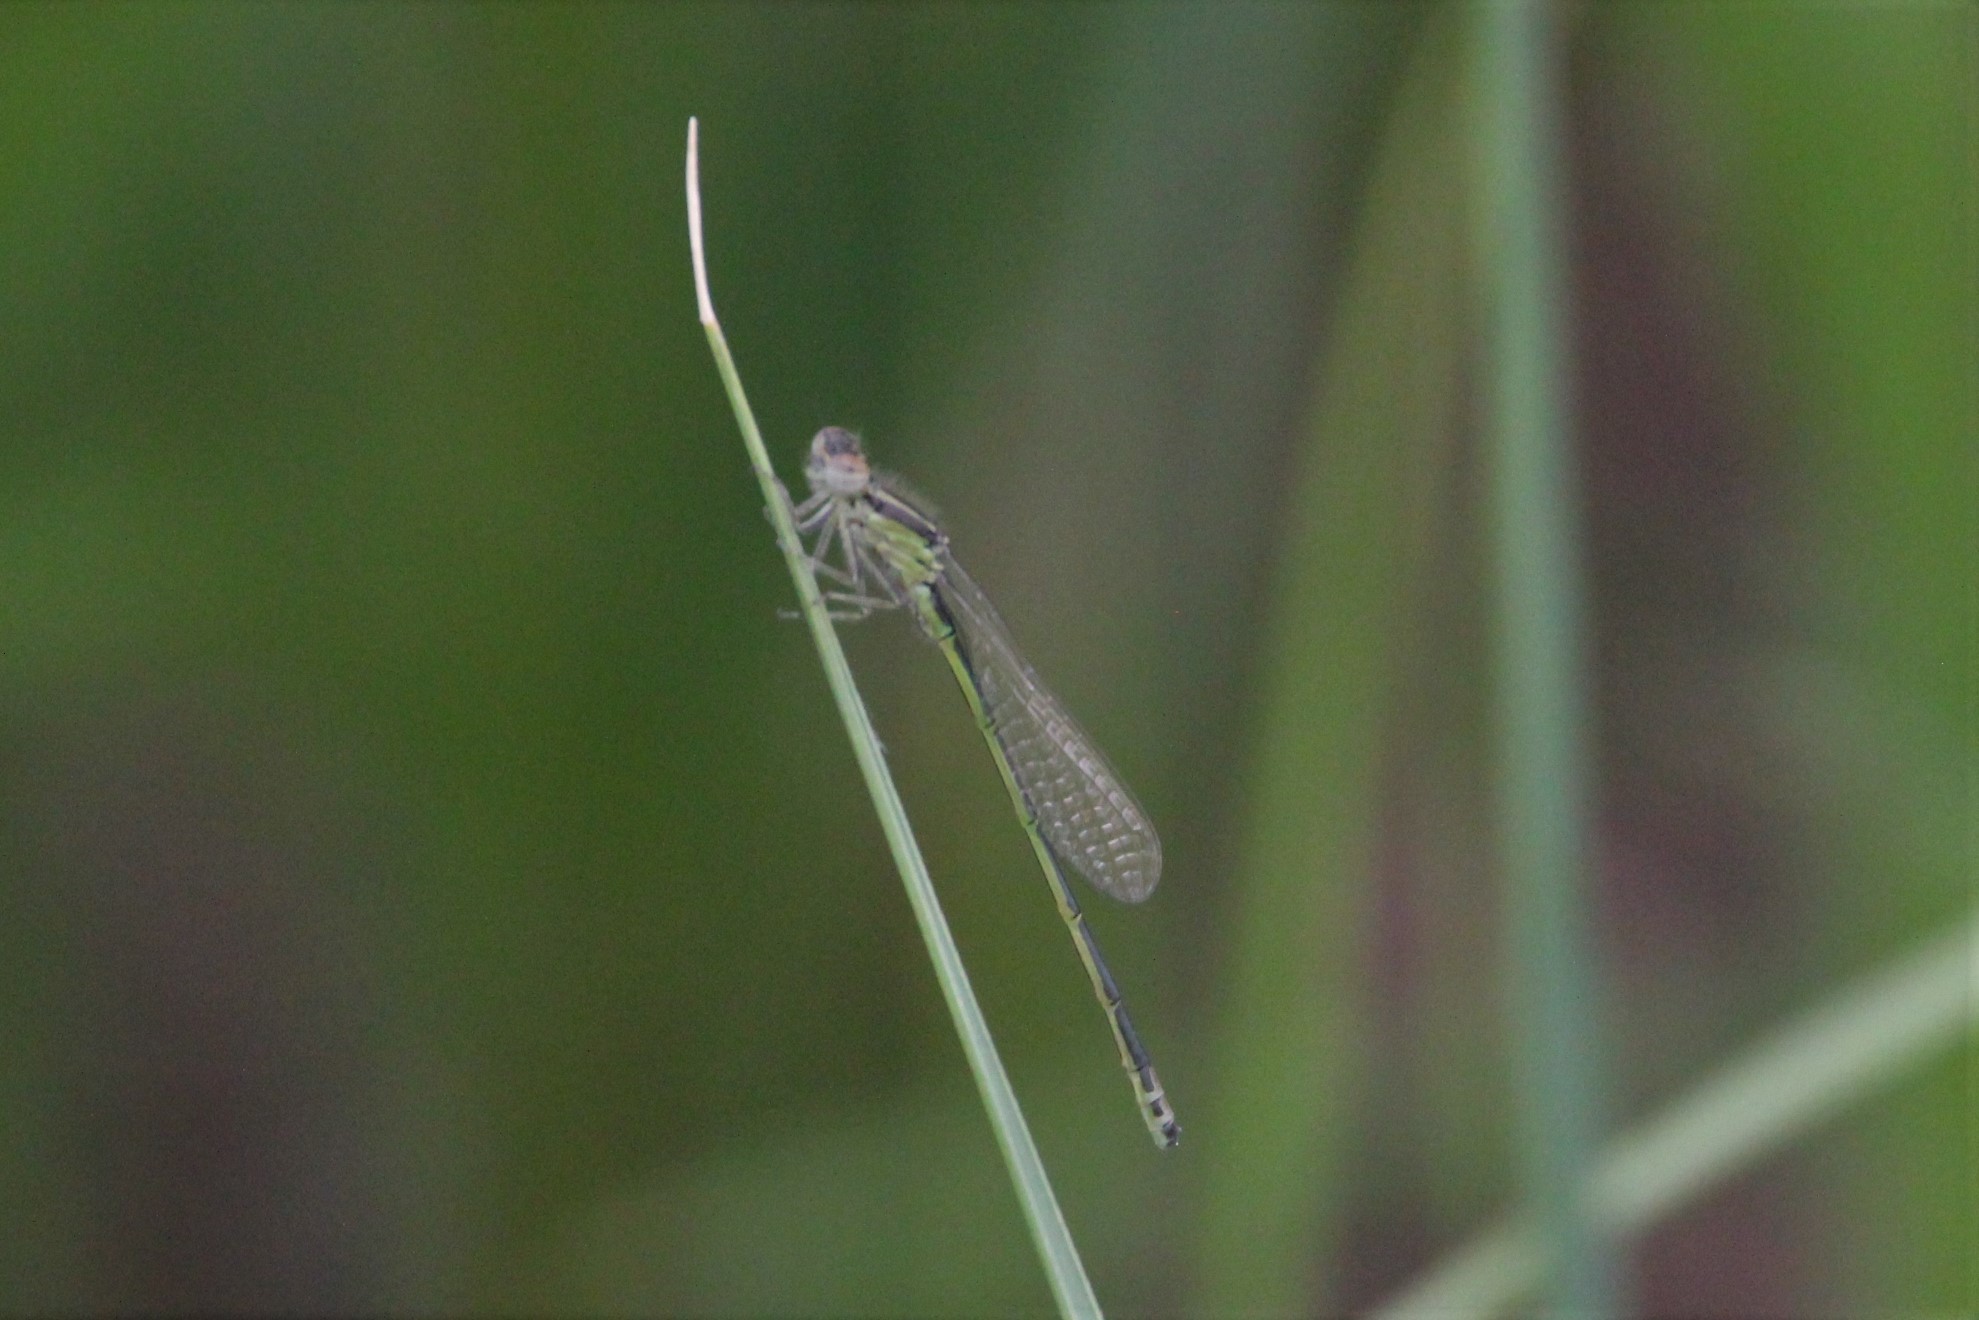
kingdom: Animalia
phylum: Arthropoda
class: Insecta
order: Odonata
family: Coenagrionidae
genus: Ischnura
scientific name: Ischnura verticalis
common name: Eastern forktail
